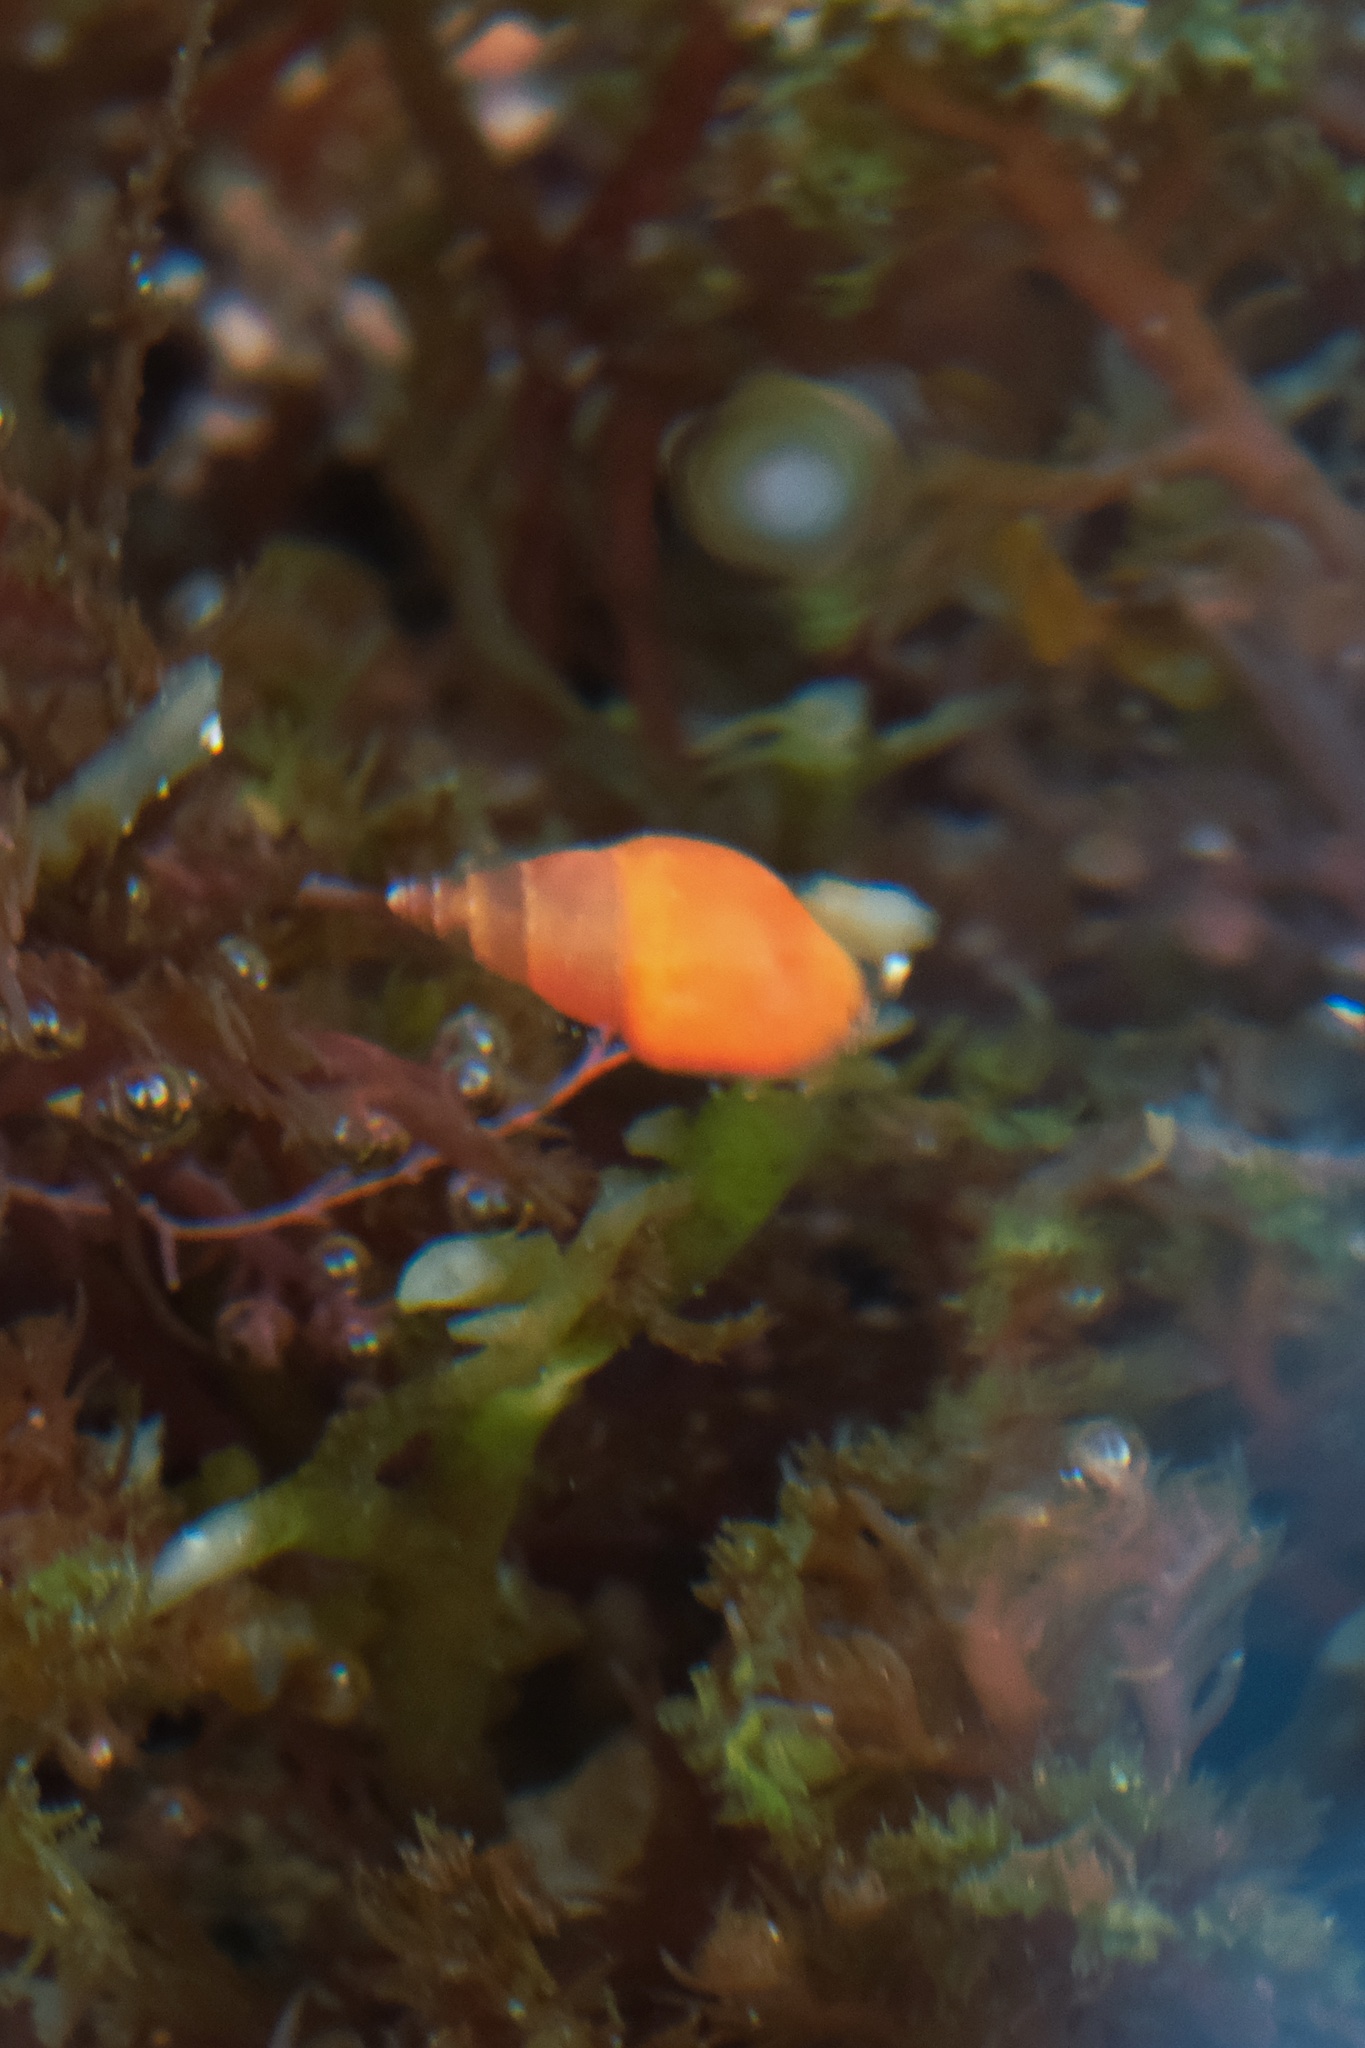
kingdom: Animalia
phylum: Mollusca
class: Gastropoda
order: Neogastropoda
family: Columbellidae
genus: Alia
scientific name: Alia carinata
